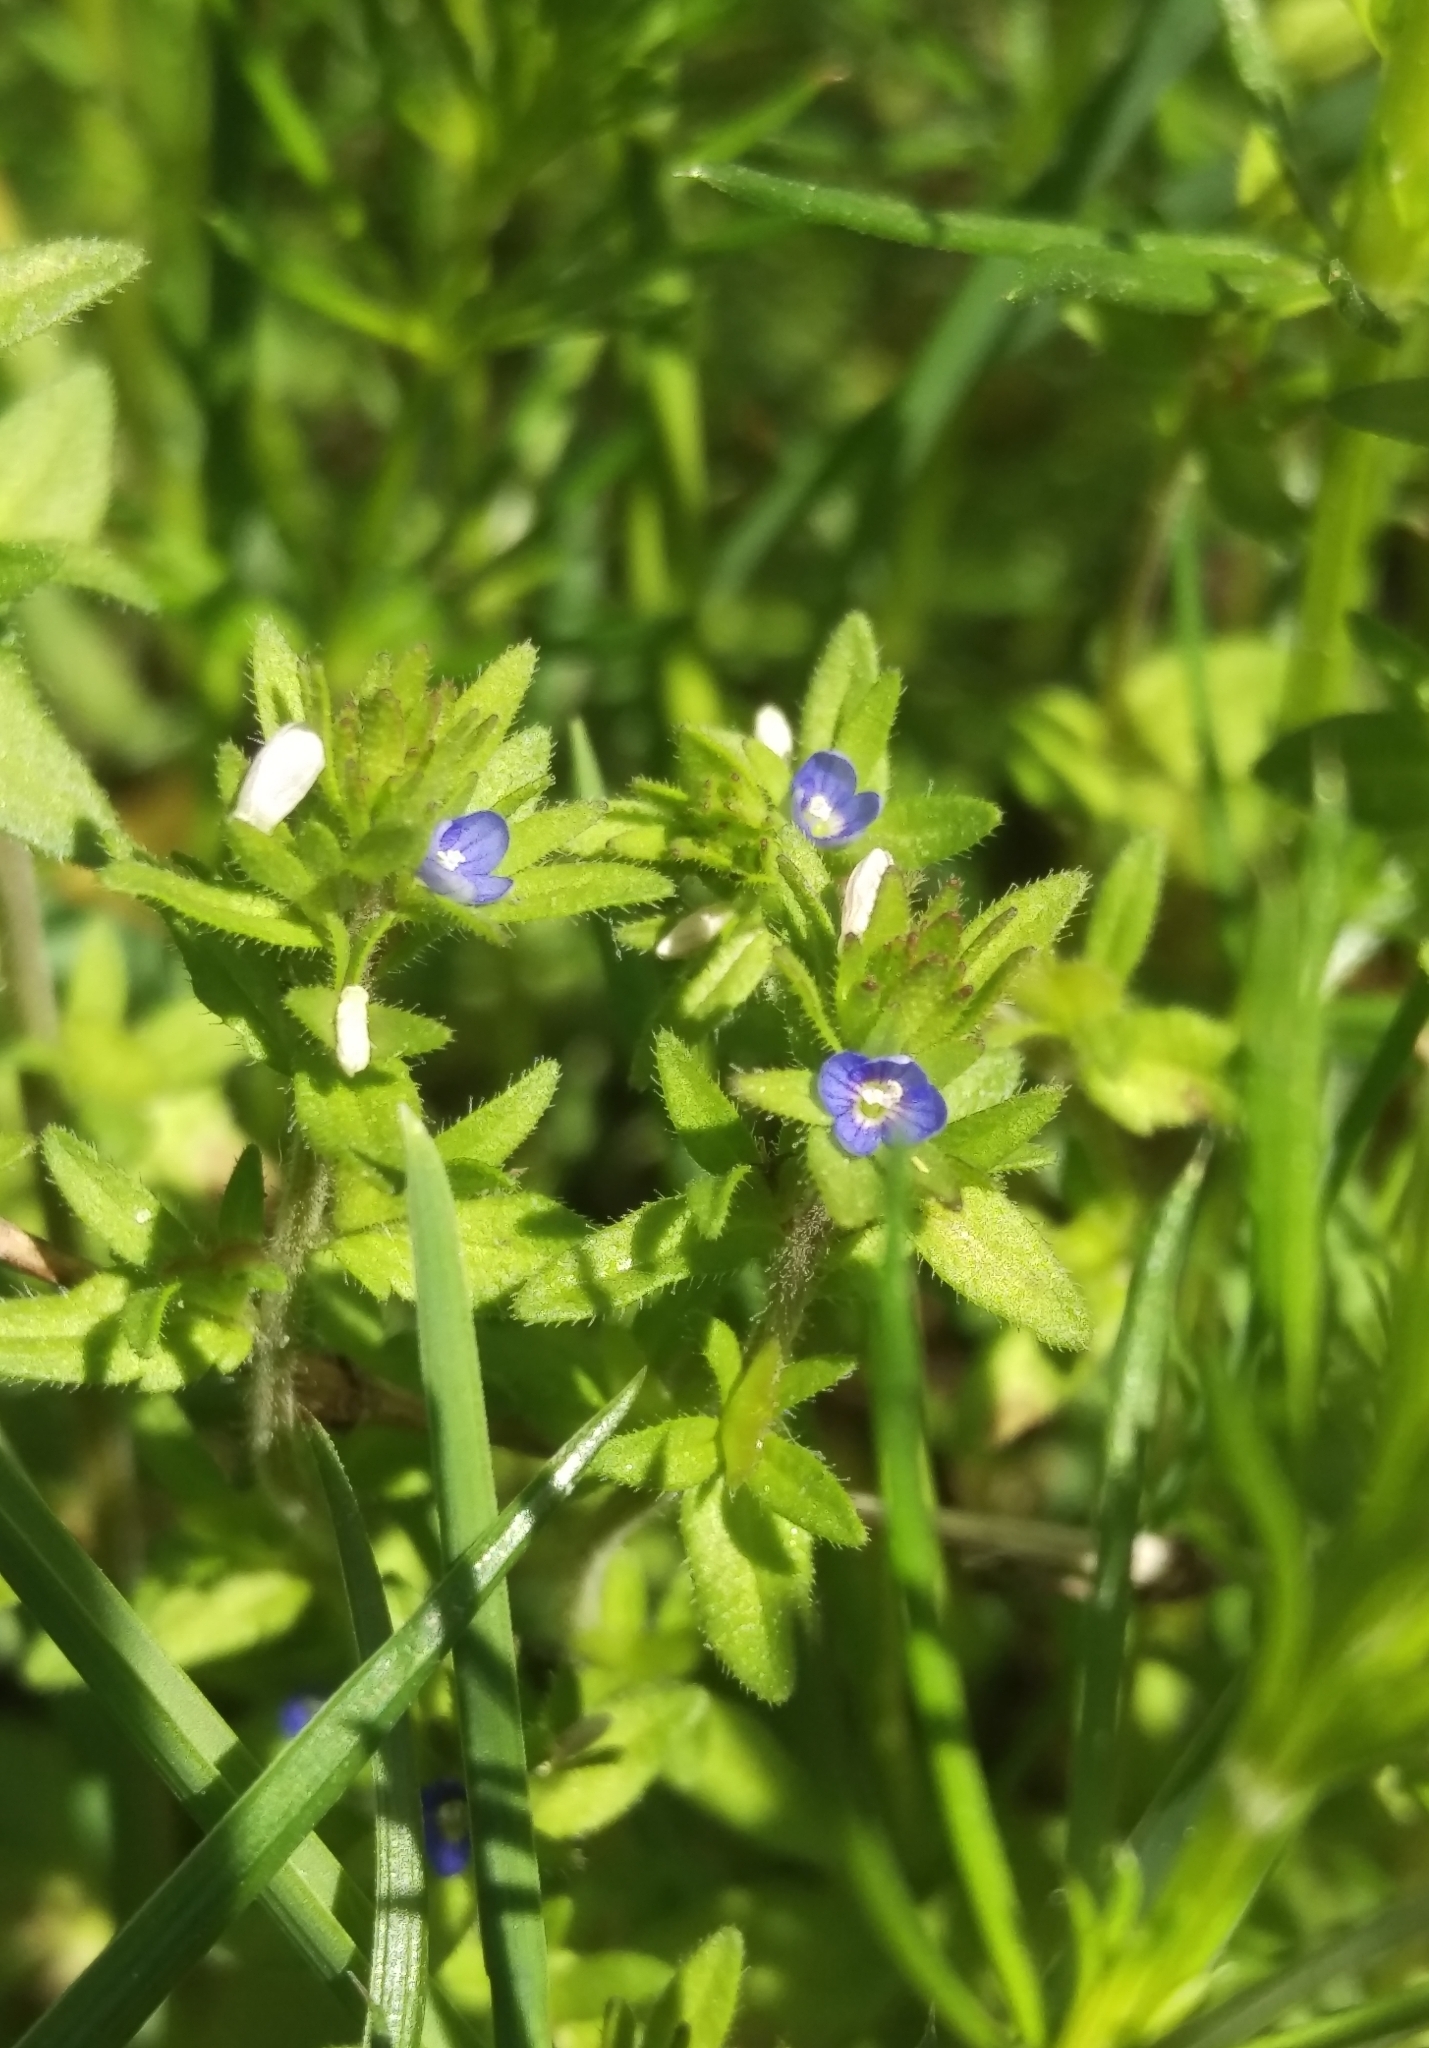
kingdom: Plantae
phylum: Tracheophyta
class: Magnoliopsida
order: Lamiales
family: Plantaginaceae
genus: Veronica
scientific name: Veronica arvensis
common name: Corn speedwell
